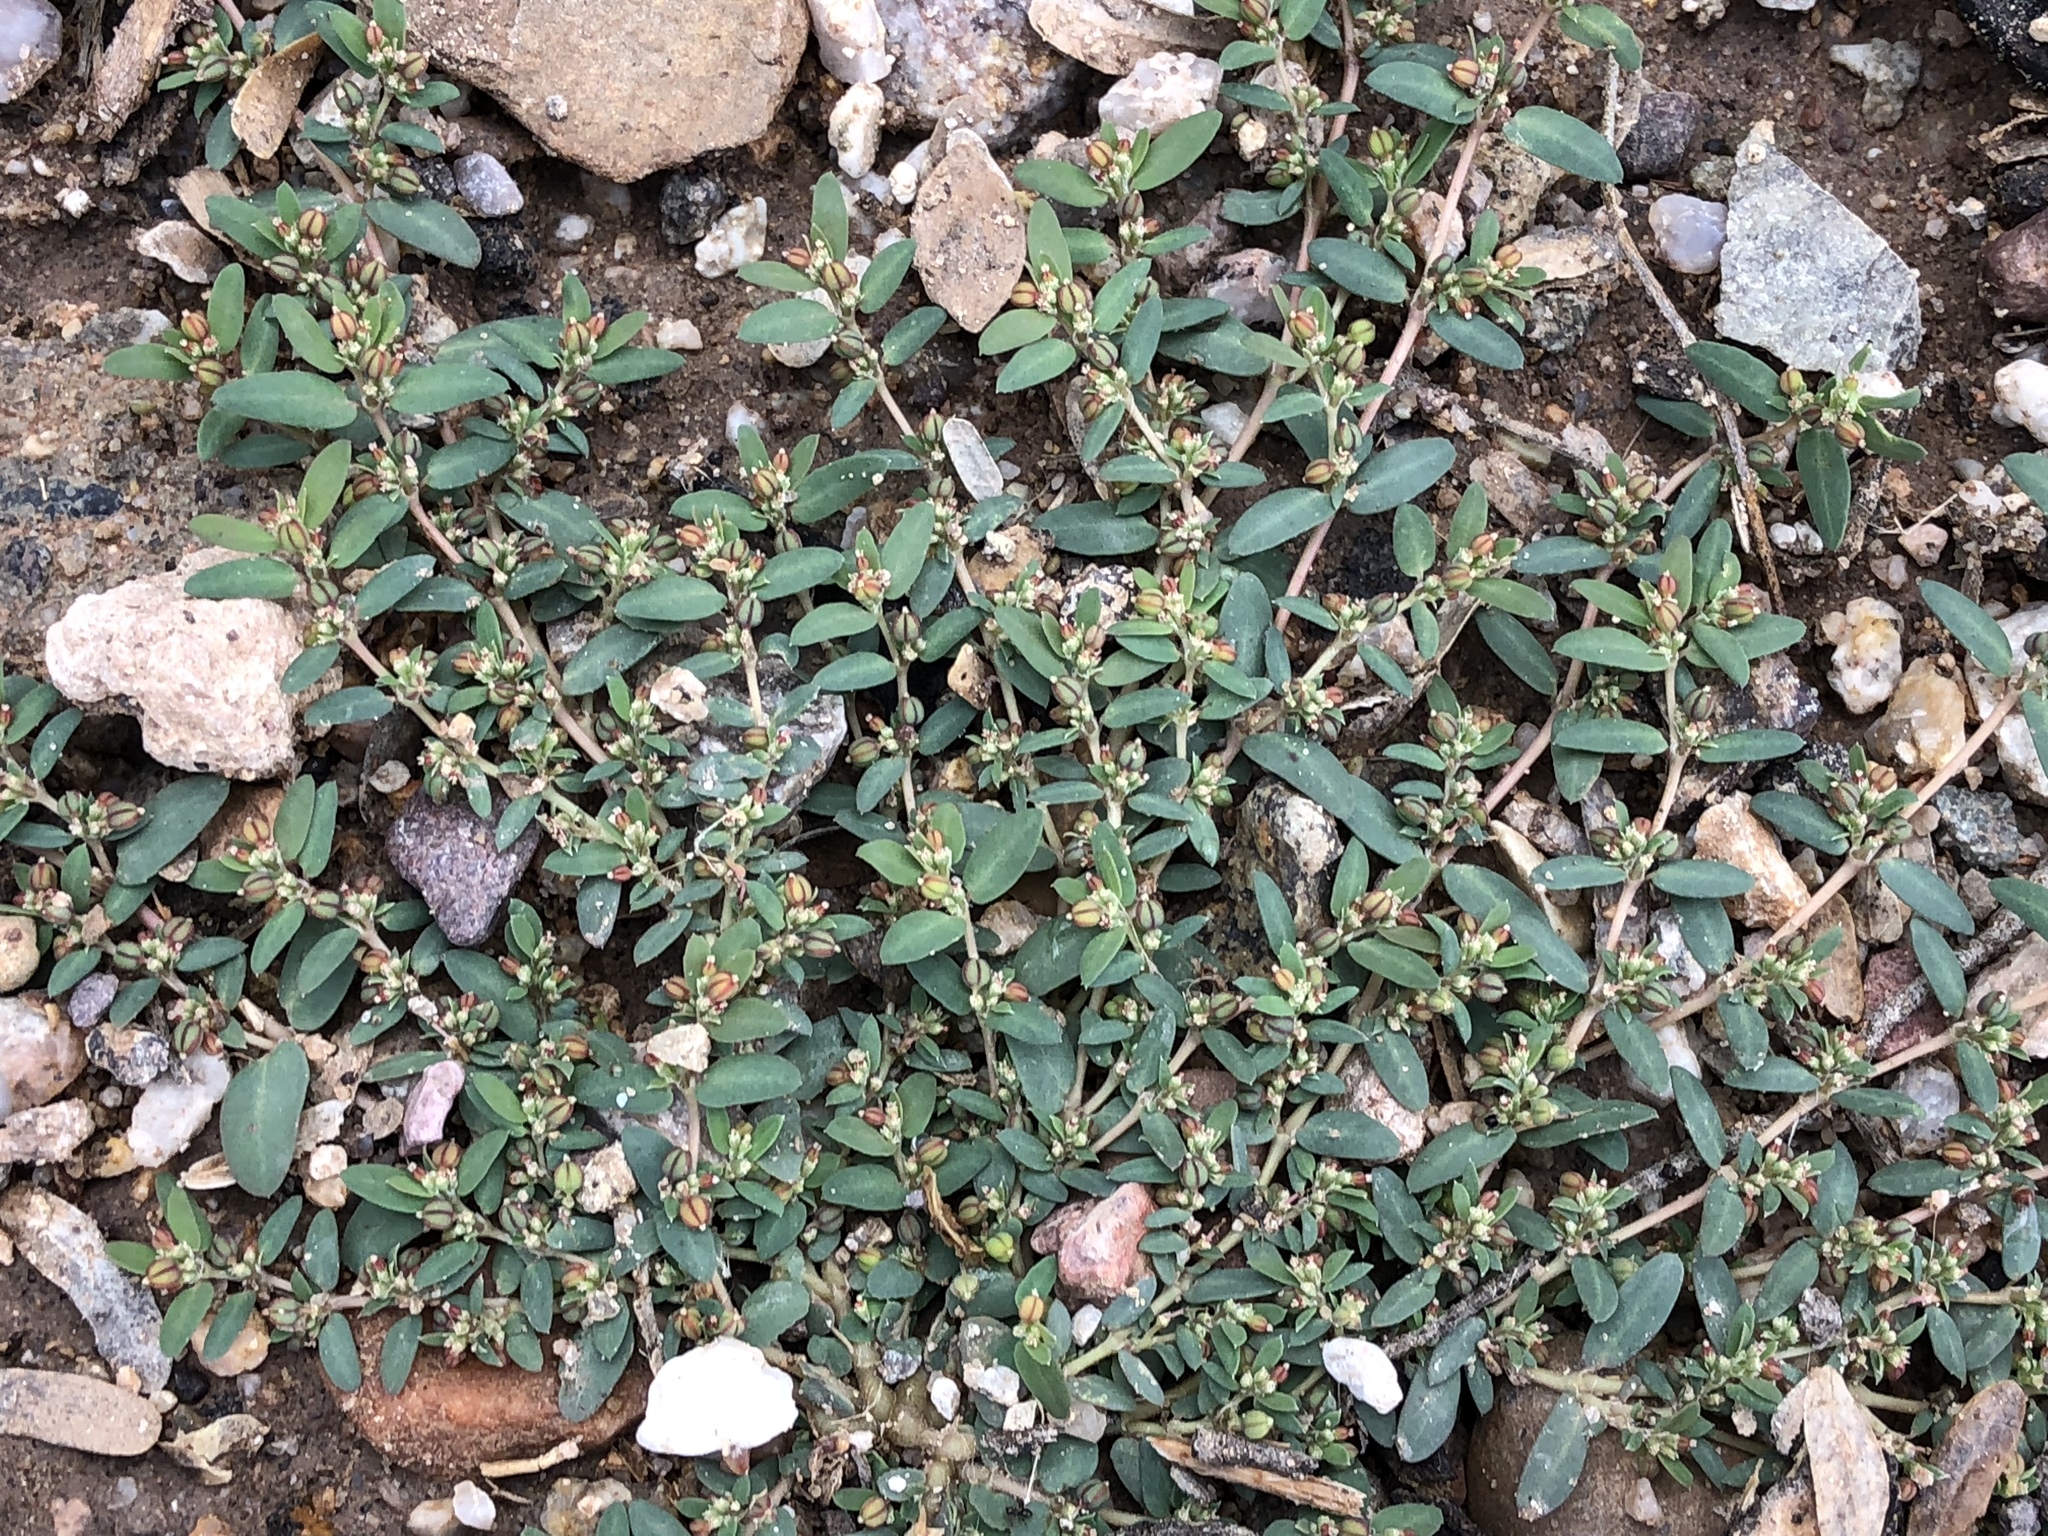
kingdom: Plantae
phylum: Tracheophyta
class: Magnoliopsida
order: Malpighiales
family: Euphorbiaceae
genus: Euphorbia
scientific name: Euphorbia abramsiana
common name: Abram's spurge
